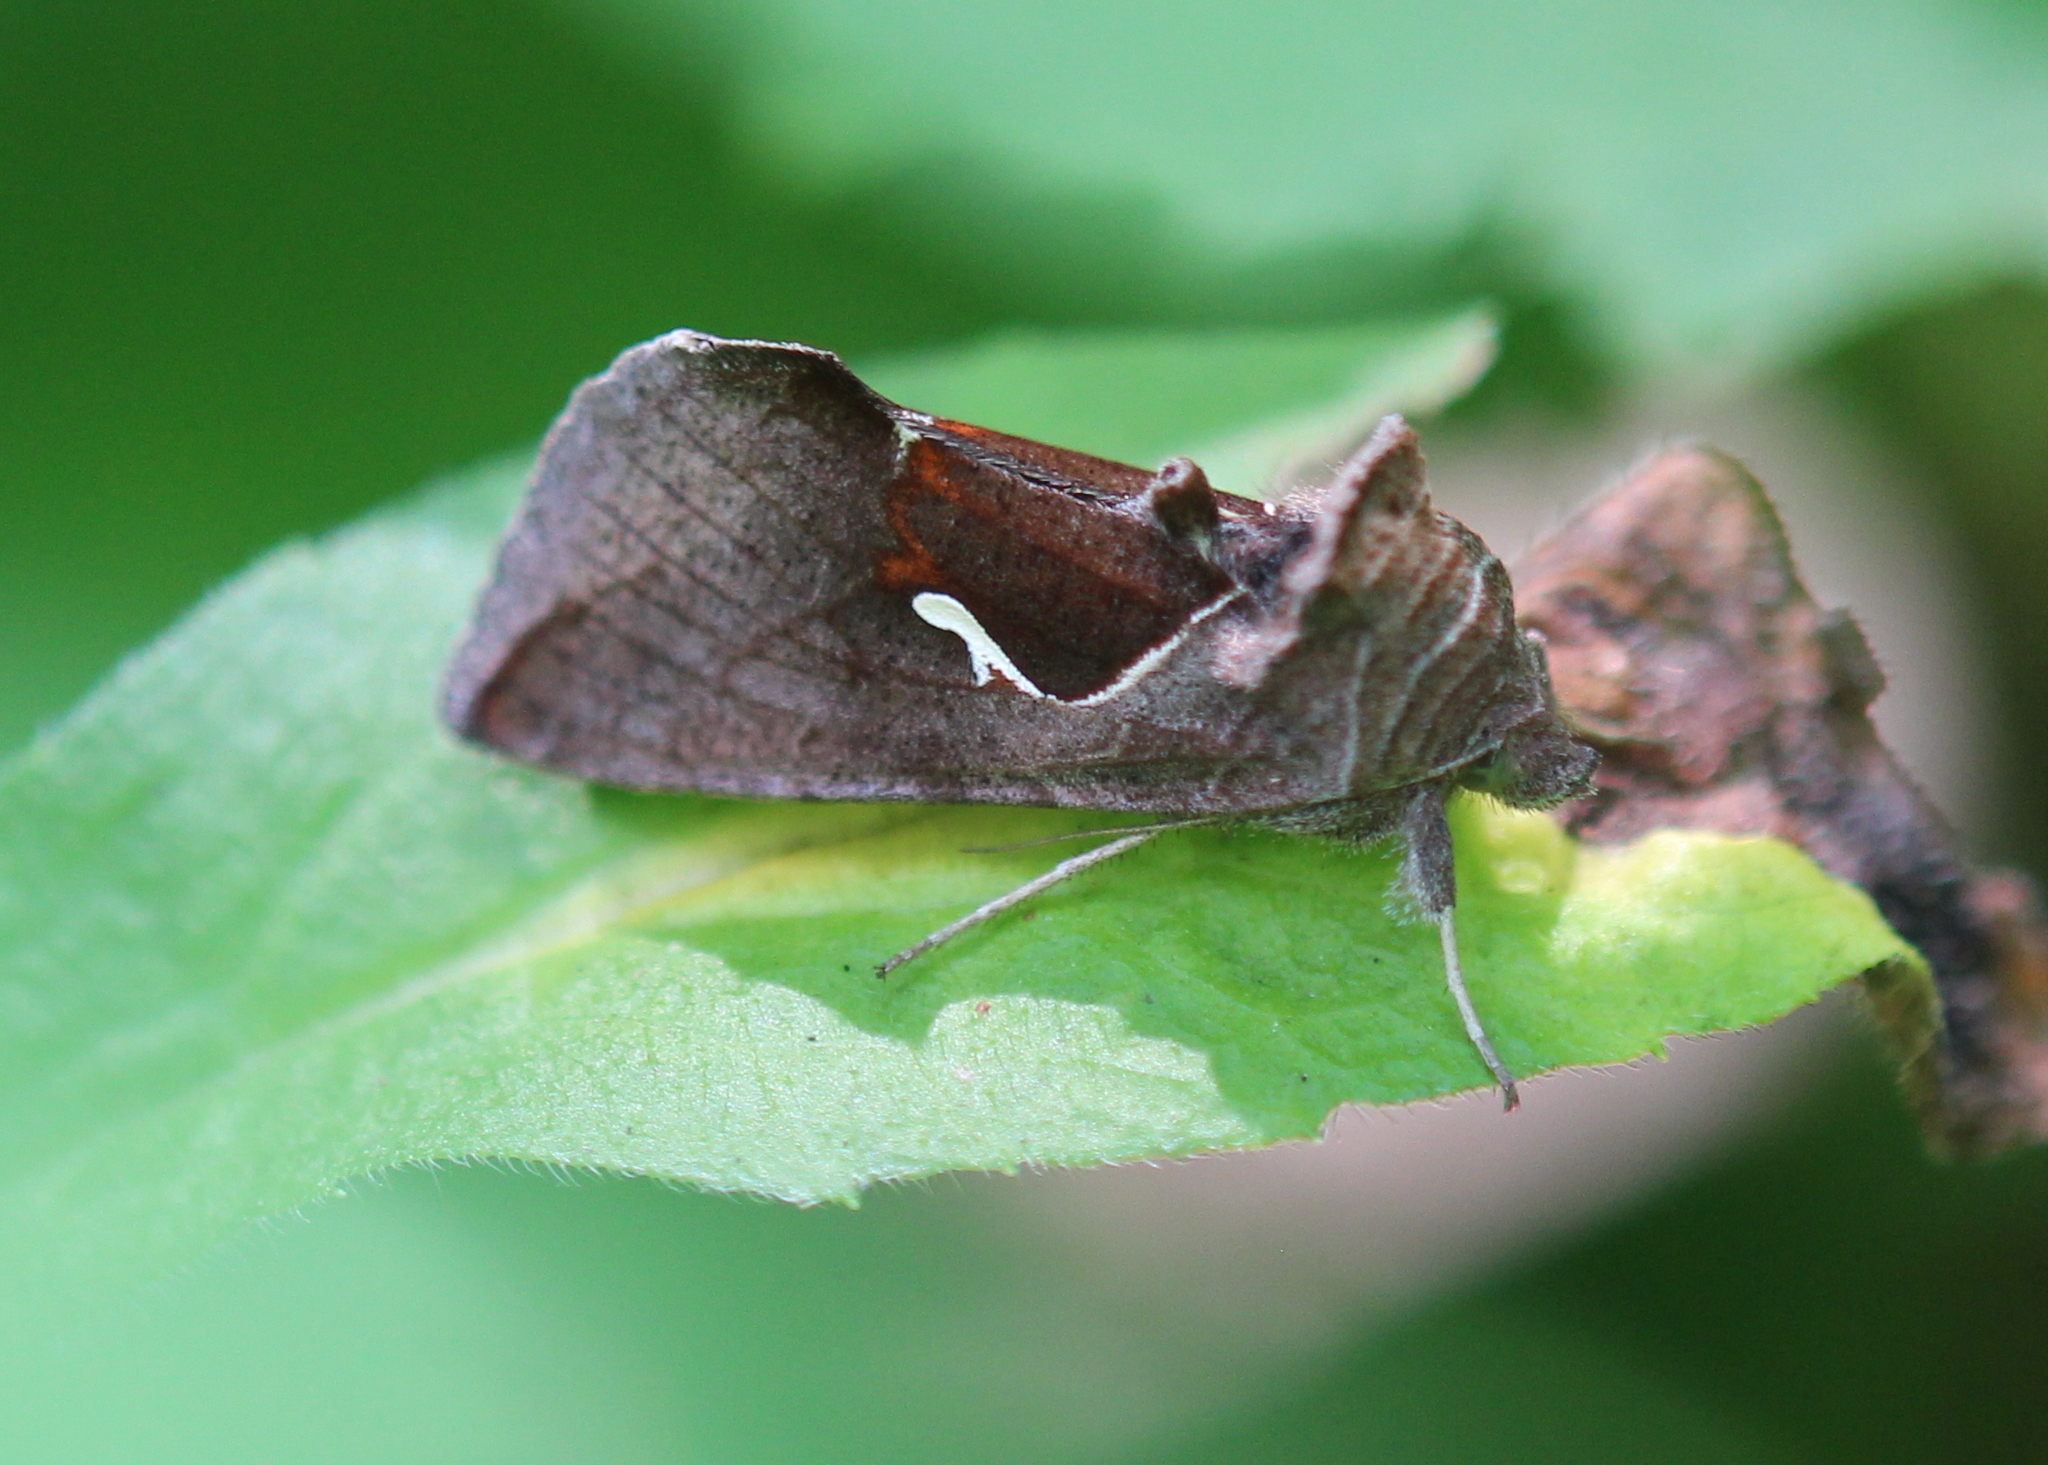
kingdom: Animalia
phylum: Arthropoda
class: Insecta
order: Lepidoptera
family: Noctuidae
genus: Anagrapha
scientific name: Anagrapha falcifera
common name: Celery looper
